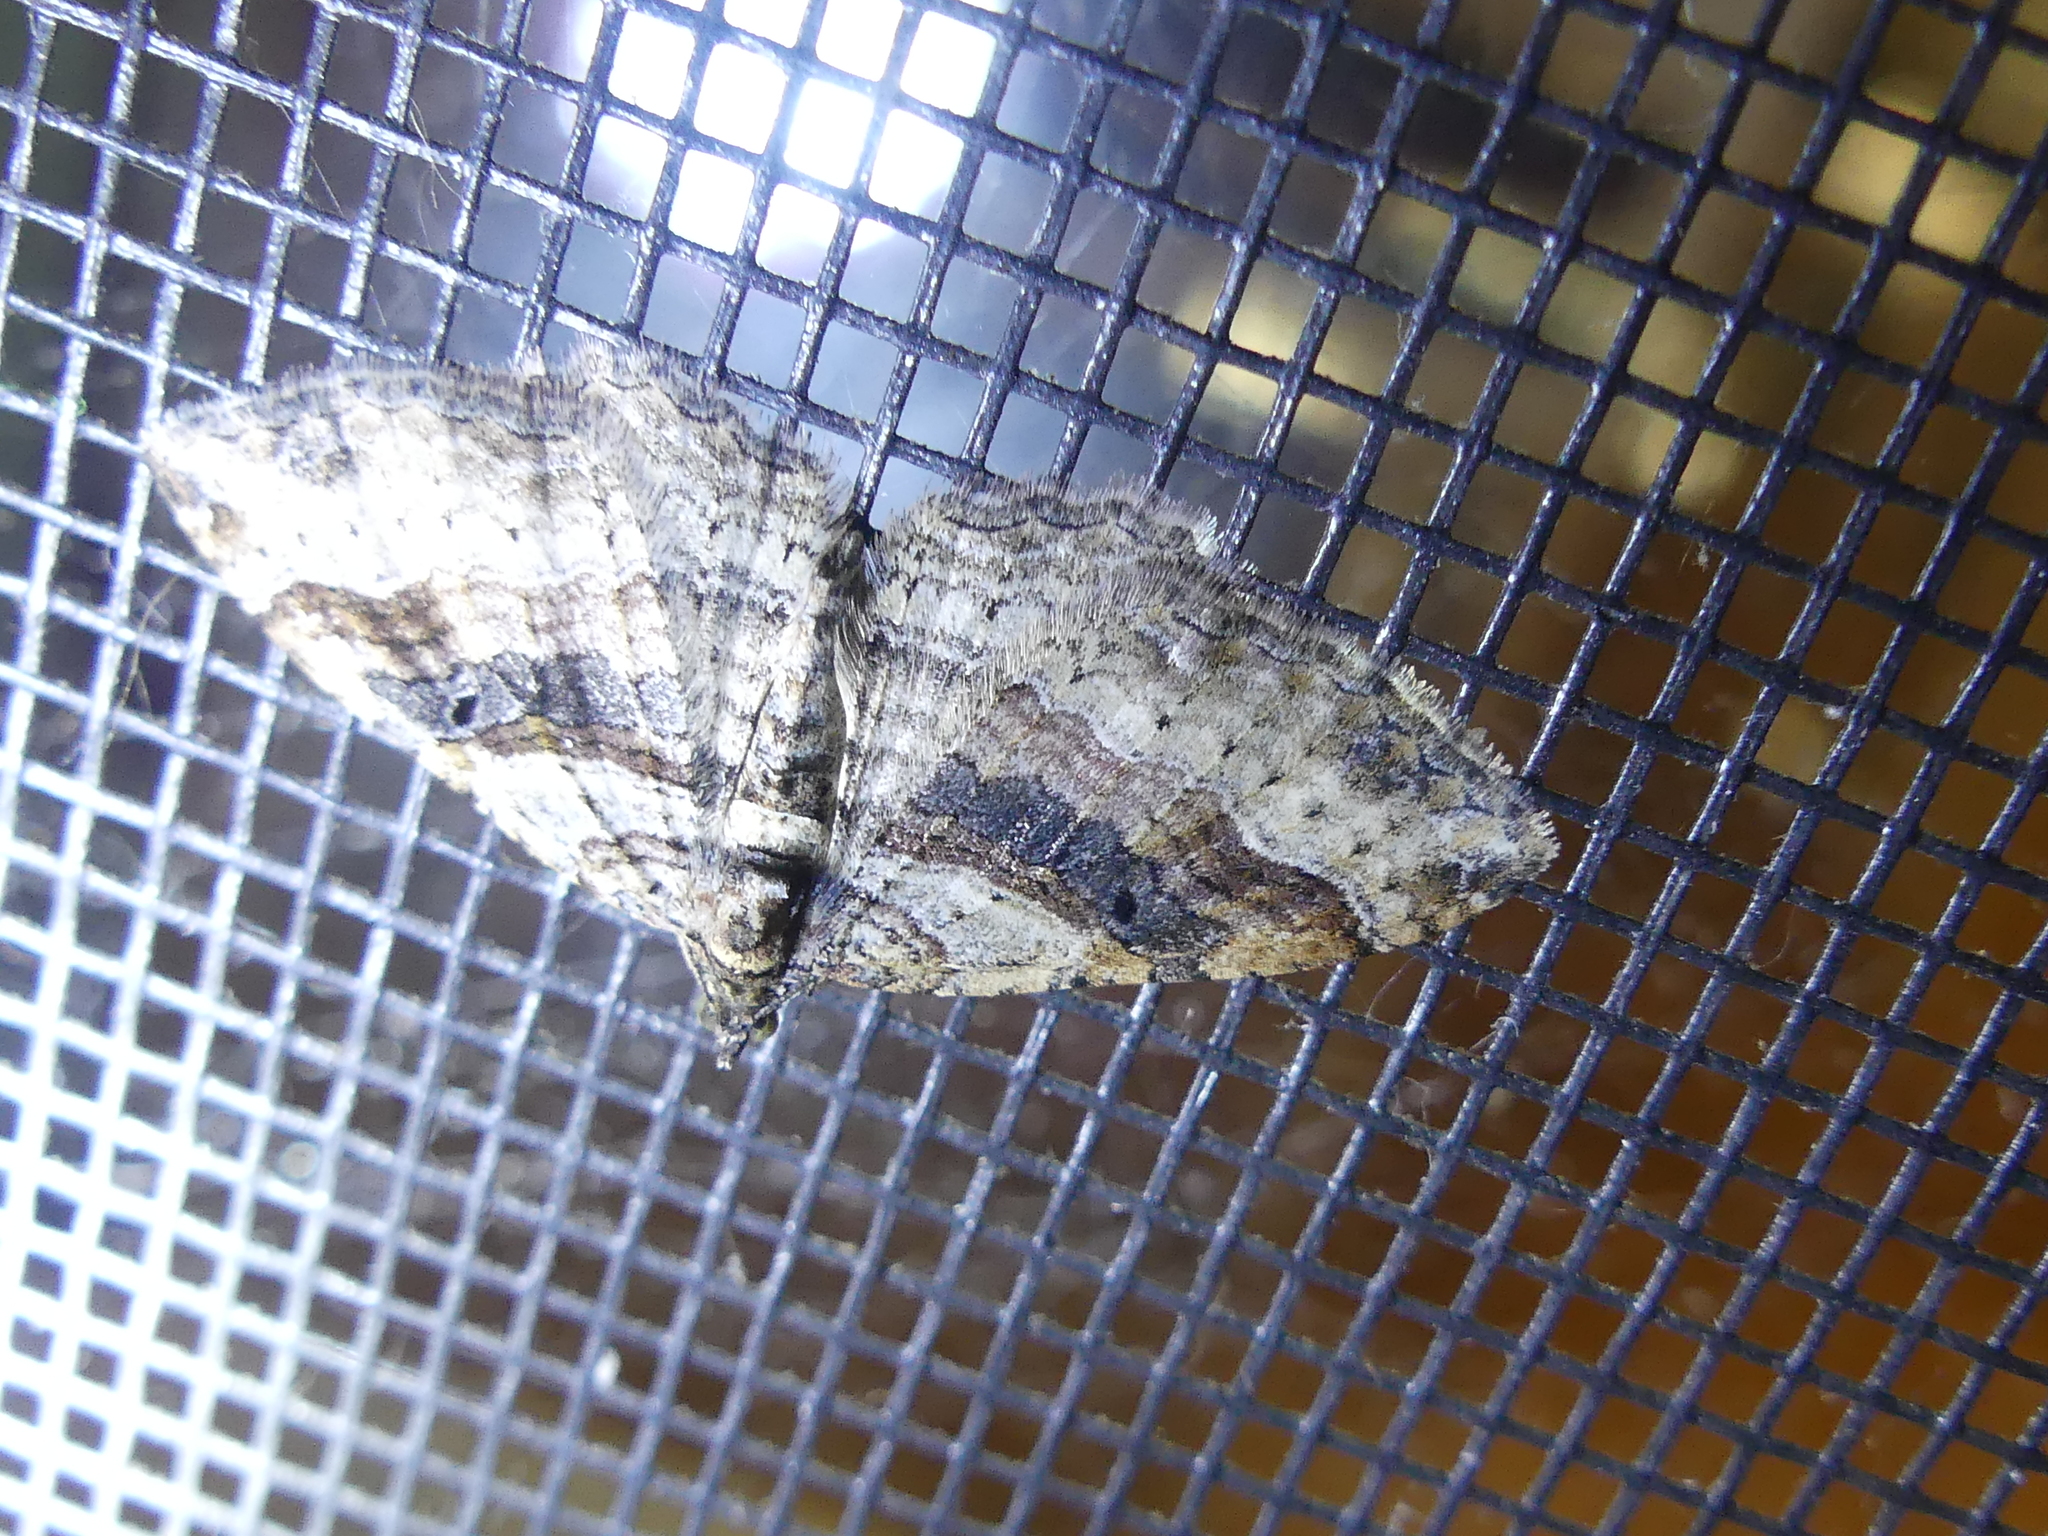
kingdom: Animalia
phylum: Arthropoda
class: Insecta
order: Lepidoptera
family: Geometridae
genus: Costaconvexa
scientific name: Costaconvexa centrostrigaria
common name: Bent-line carpet
